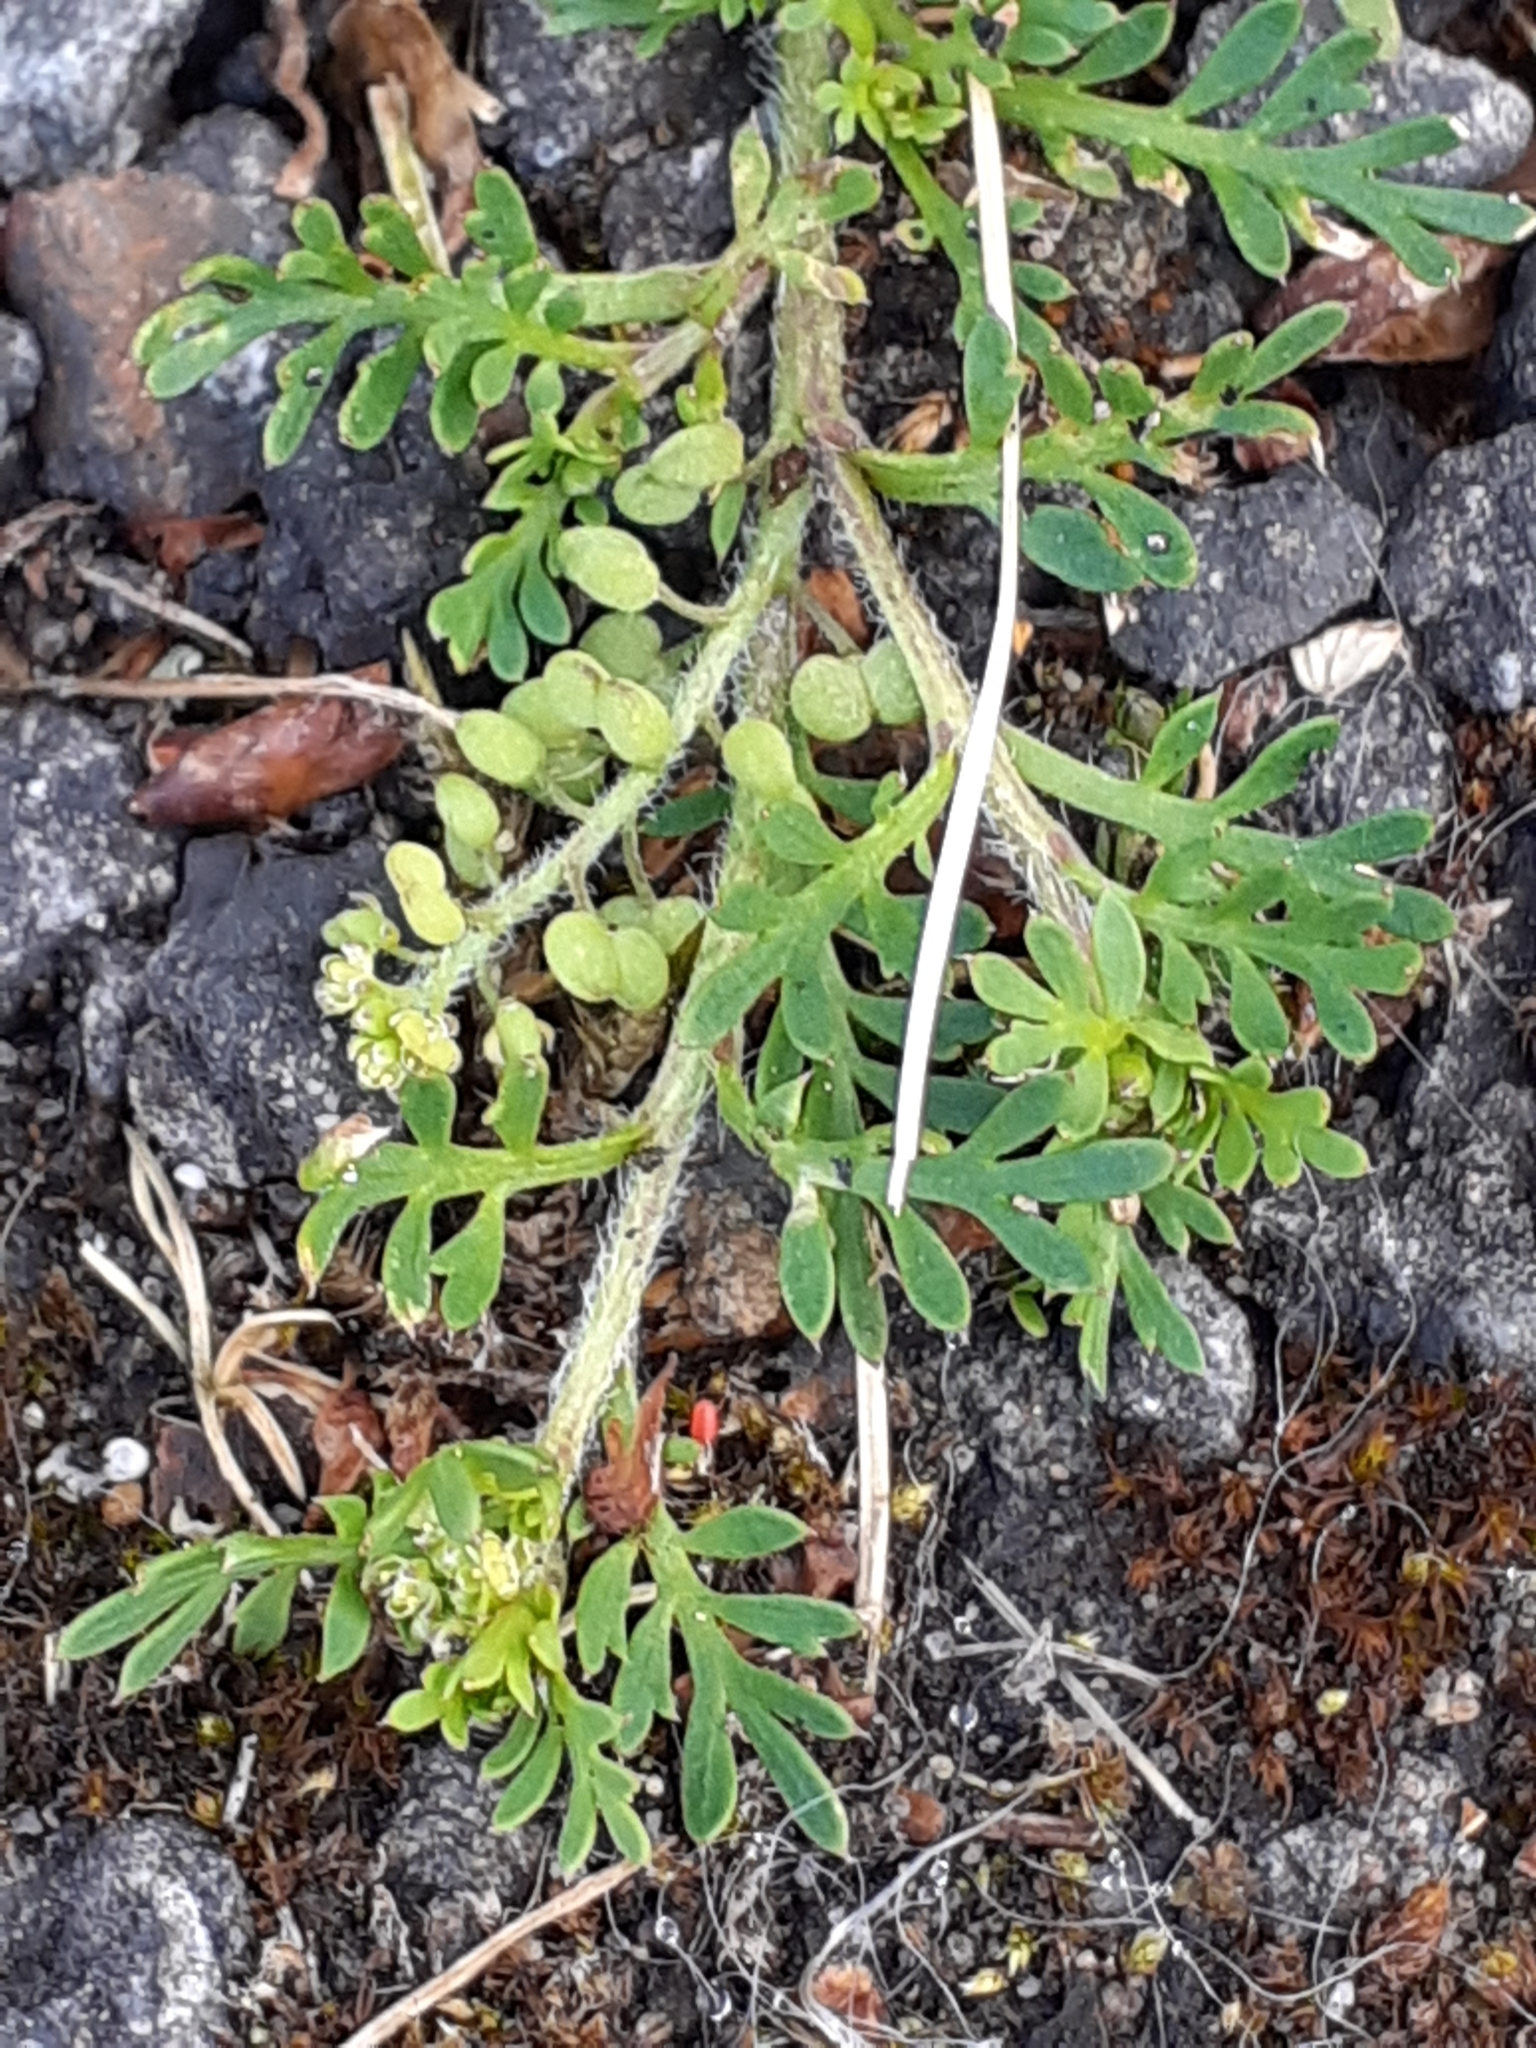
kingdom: Plantae
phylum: Tracheophyta
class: Magnoliopsida
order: Brassicales
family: Brassicaceae
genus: Lepidium
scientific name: Lepidium didymum
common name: Lesser swinecress
